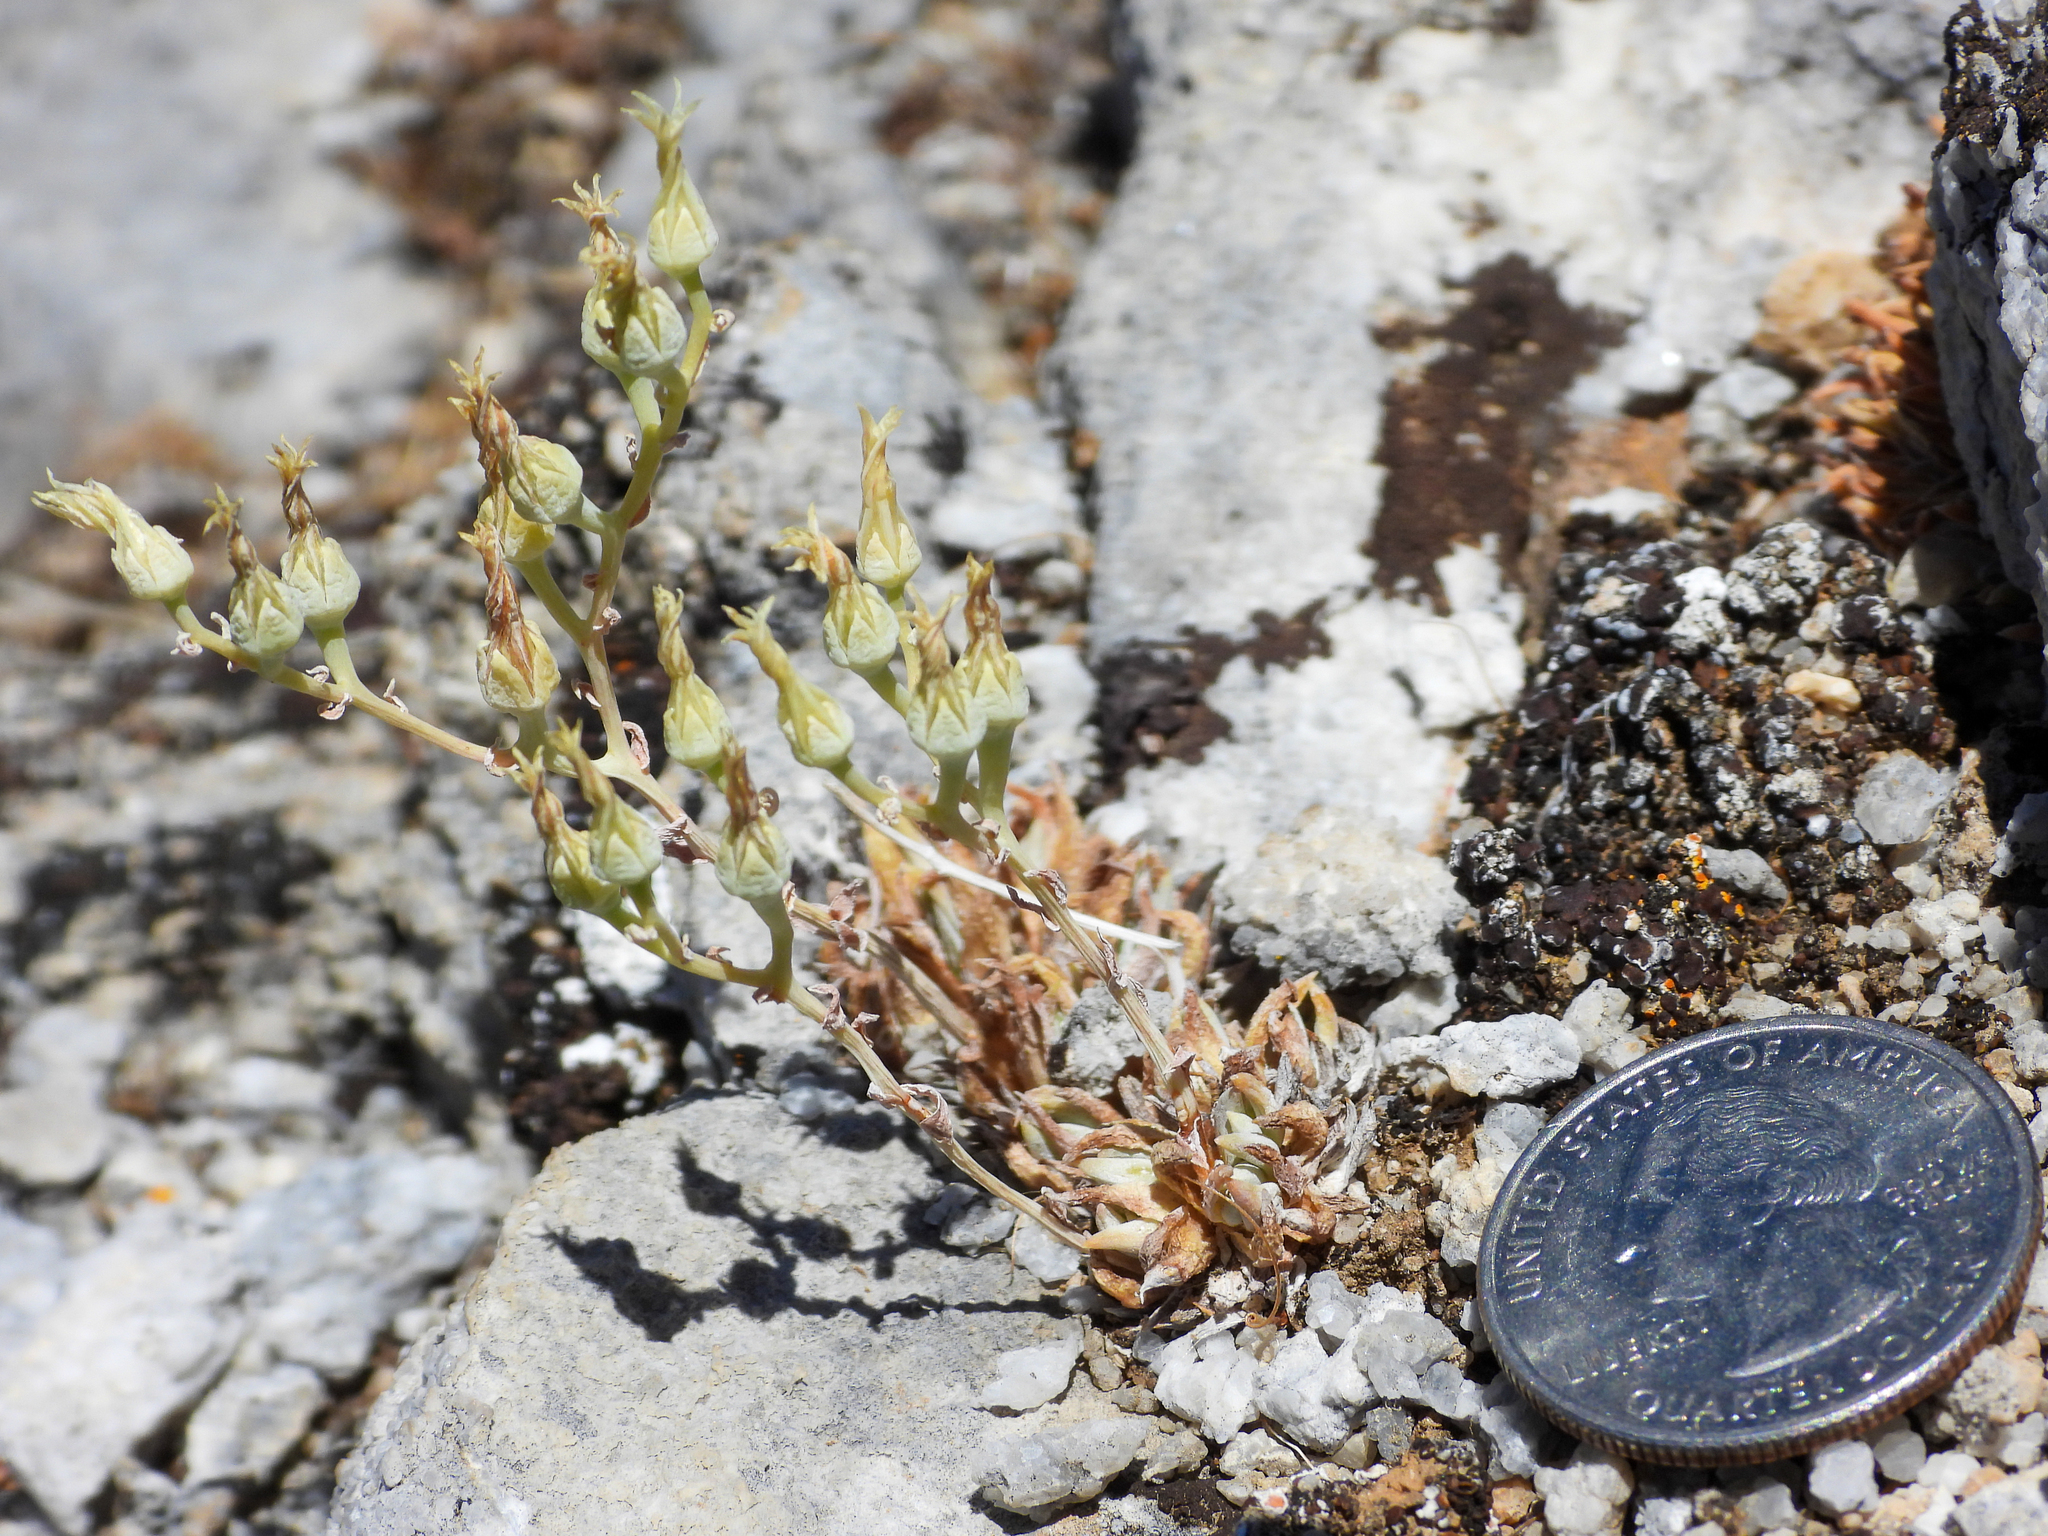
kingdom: Plantae
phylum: Tracheophyta
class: Magnoliopsida
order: Saxifragales
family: Crassulaceae
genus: Dudleya
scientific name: Dudleya calcicola
